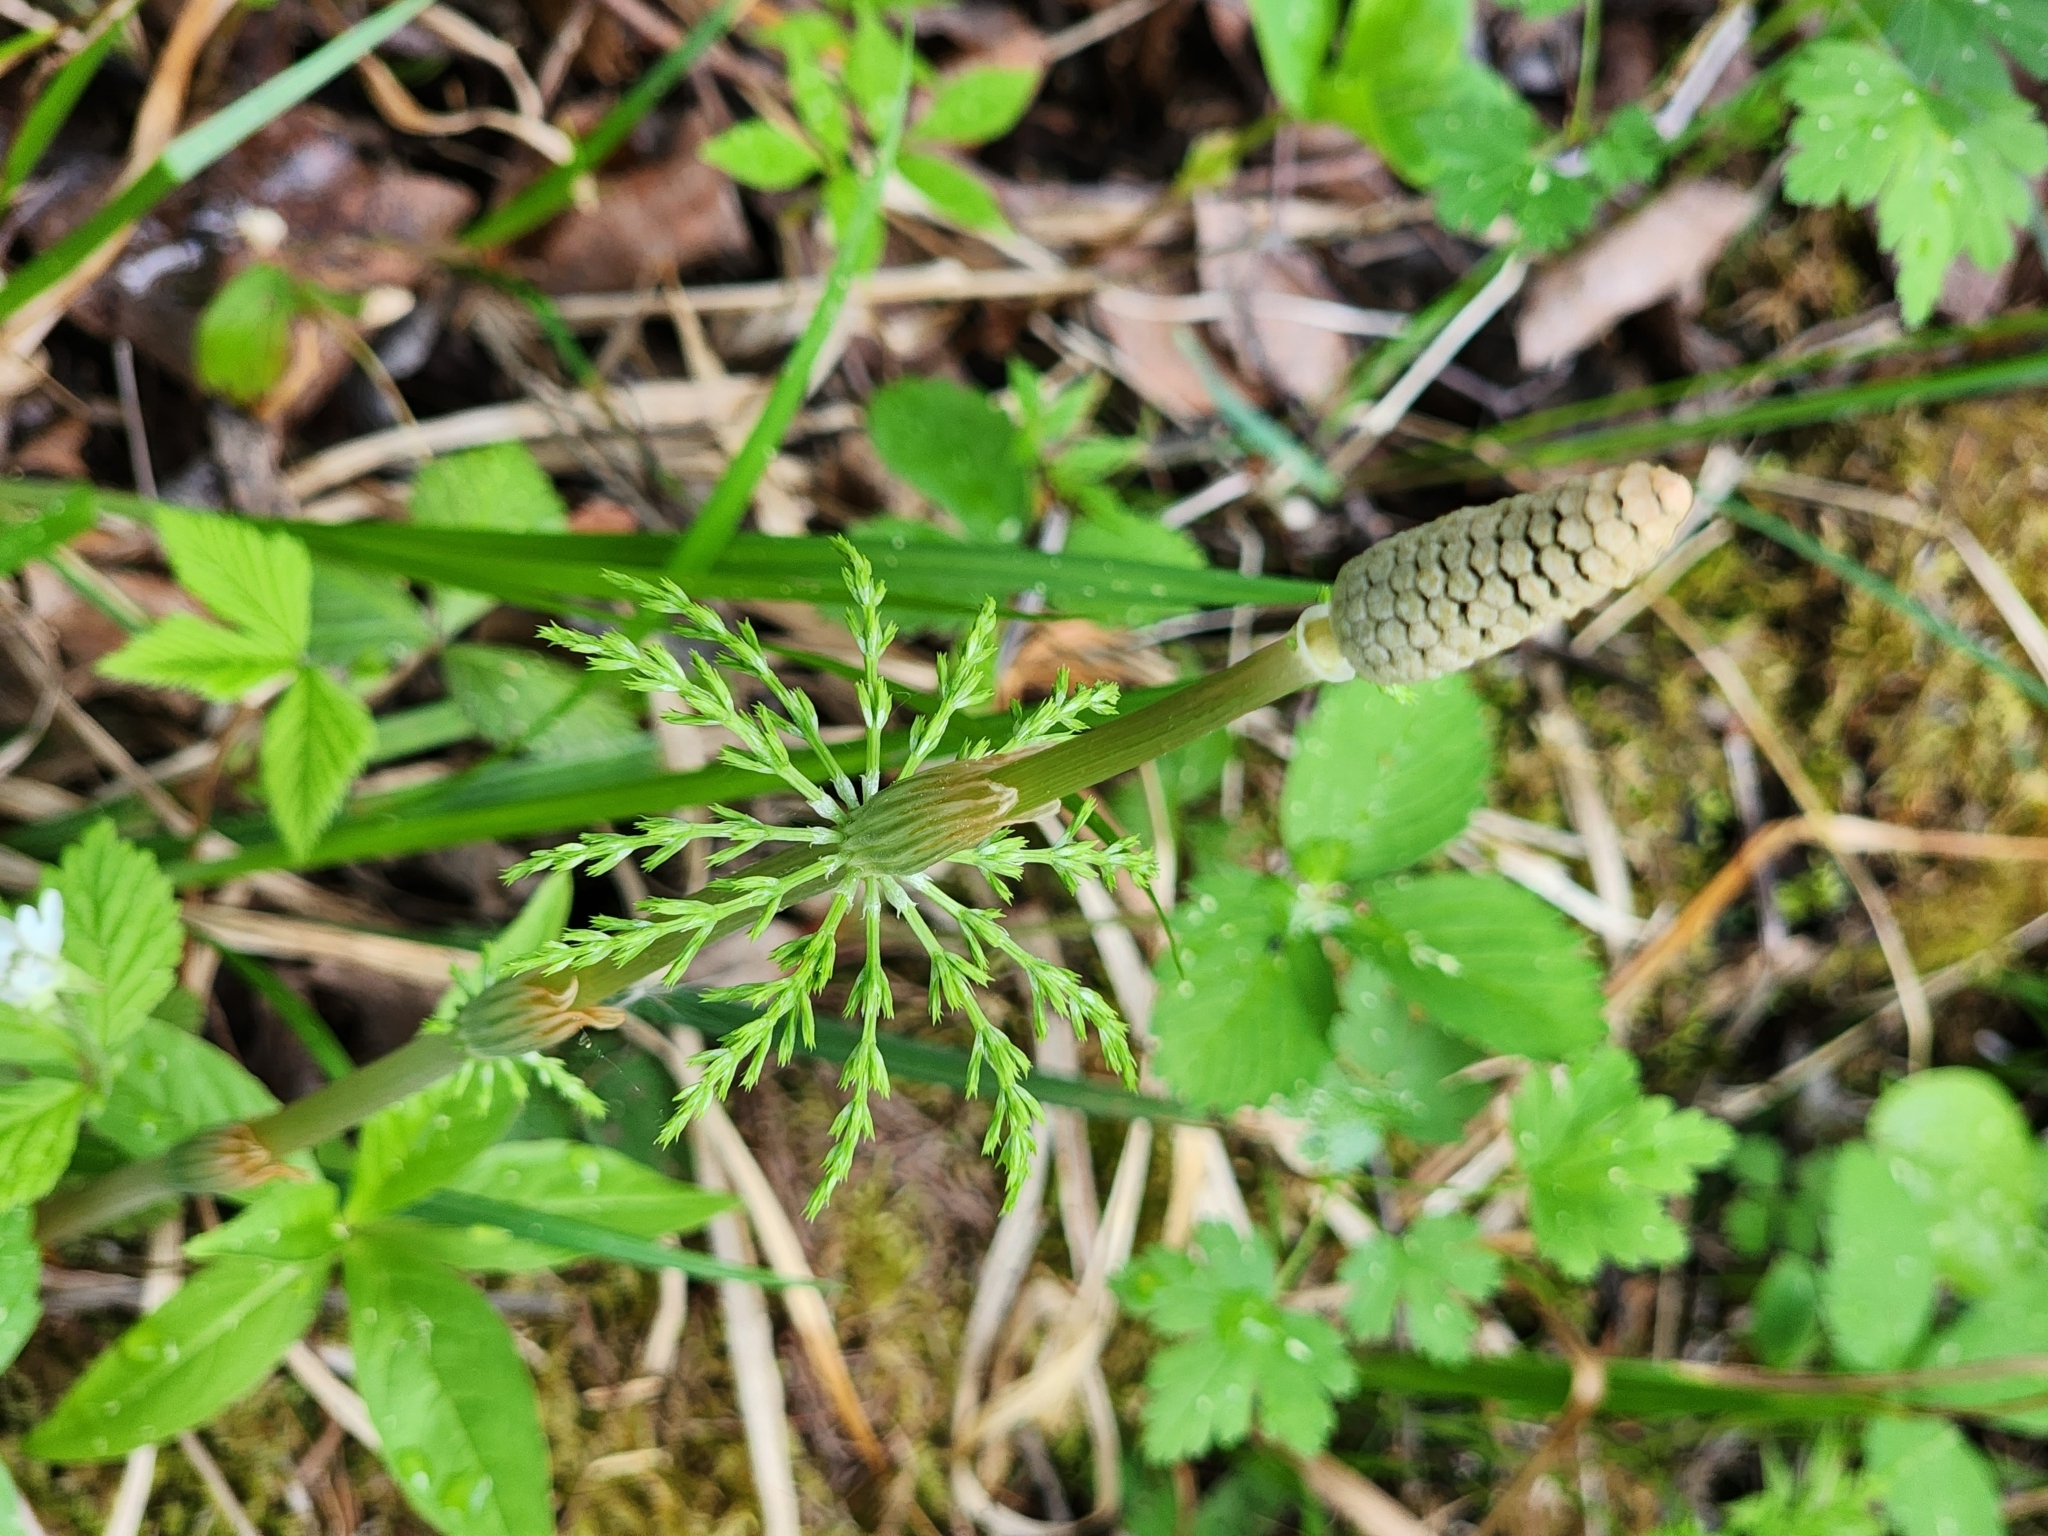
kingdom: Plantae
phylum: Tracheophyta
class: Polypodiopsida
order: Equisetales
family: Equisetaceae
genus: Equisetum
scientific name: Equisetum sylvaticum
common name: Wood horsetail
